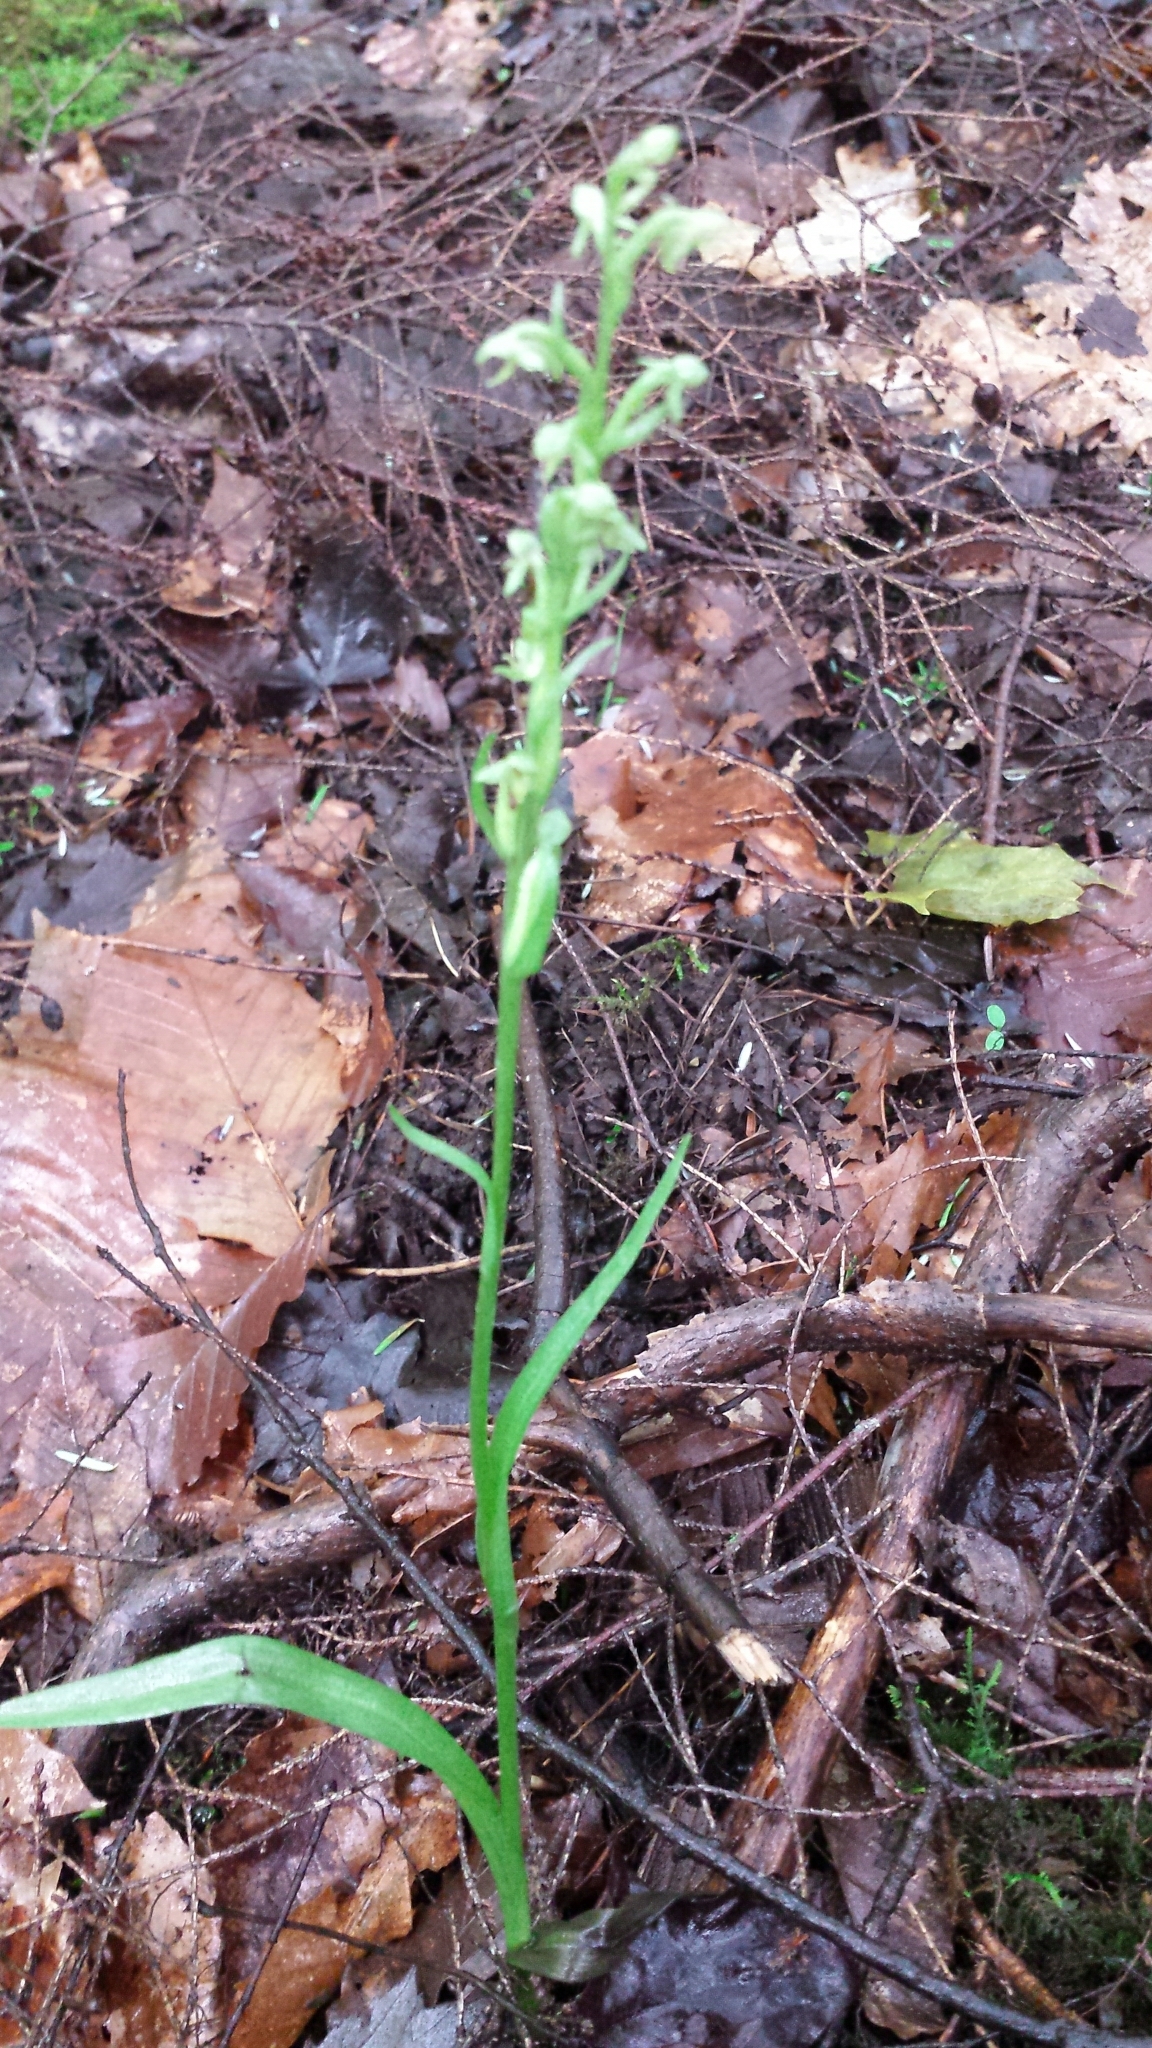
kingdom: Plantae
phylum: Tracheophyta
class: Liliopsida
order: Asparagales
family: Orchidaceae
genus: Platanthera
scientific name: Platanthera aquilonis
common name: Northern green orchid
